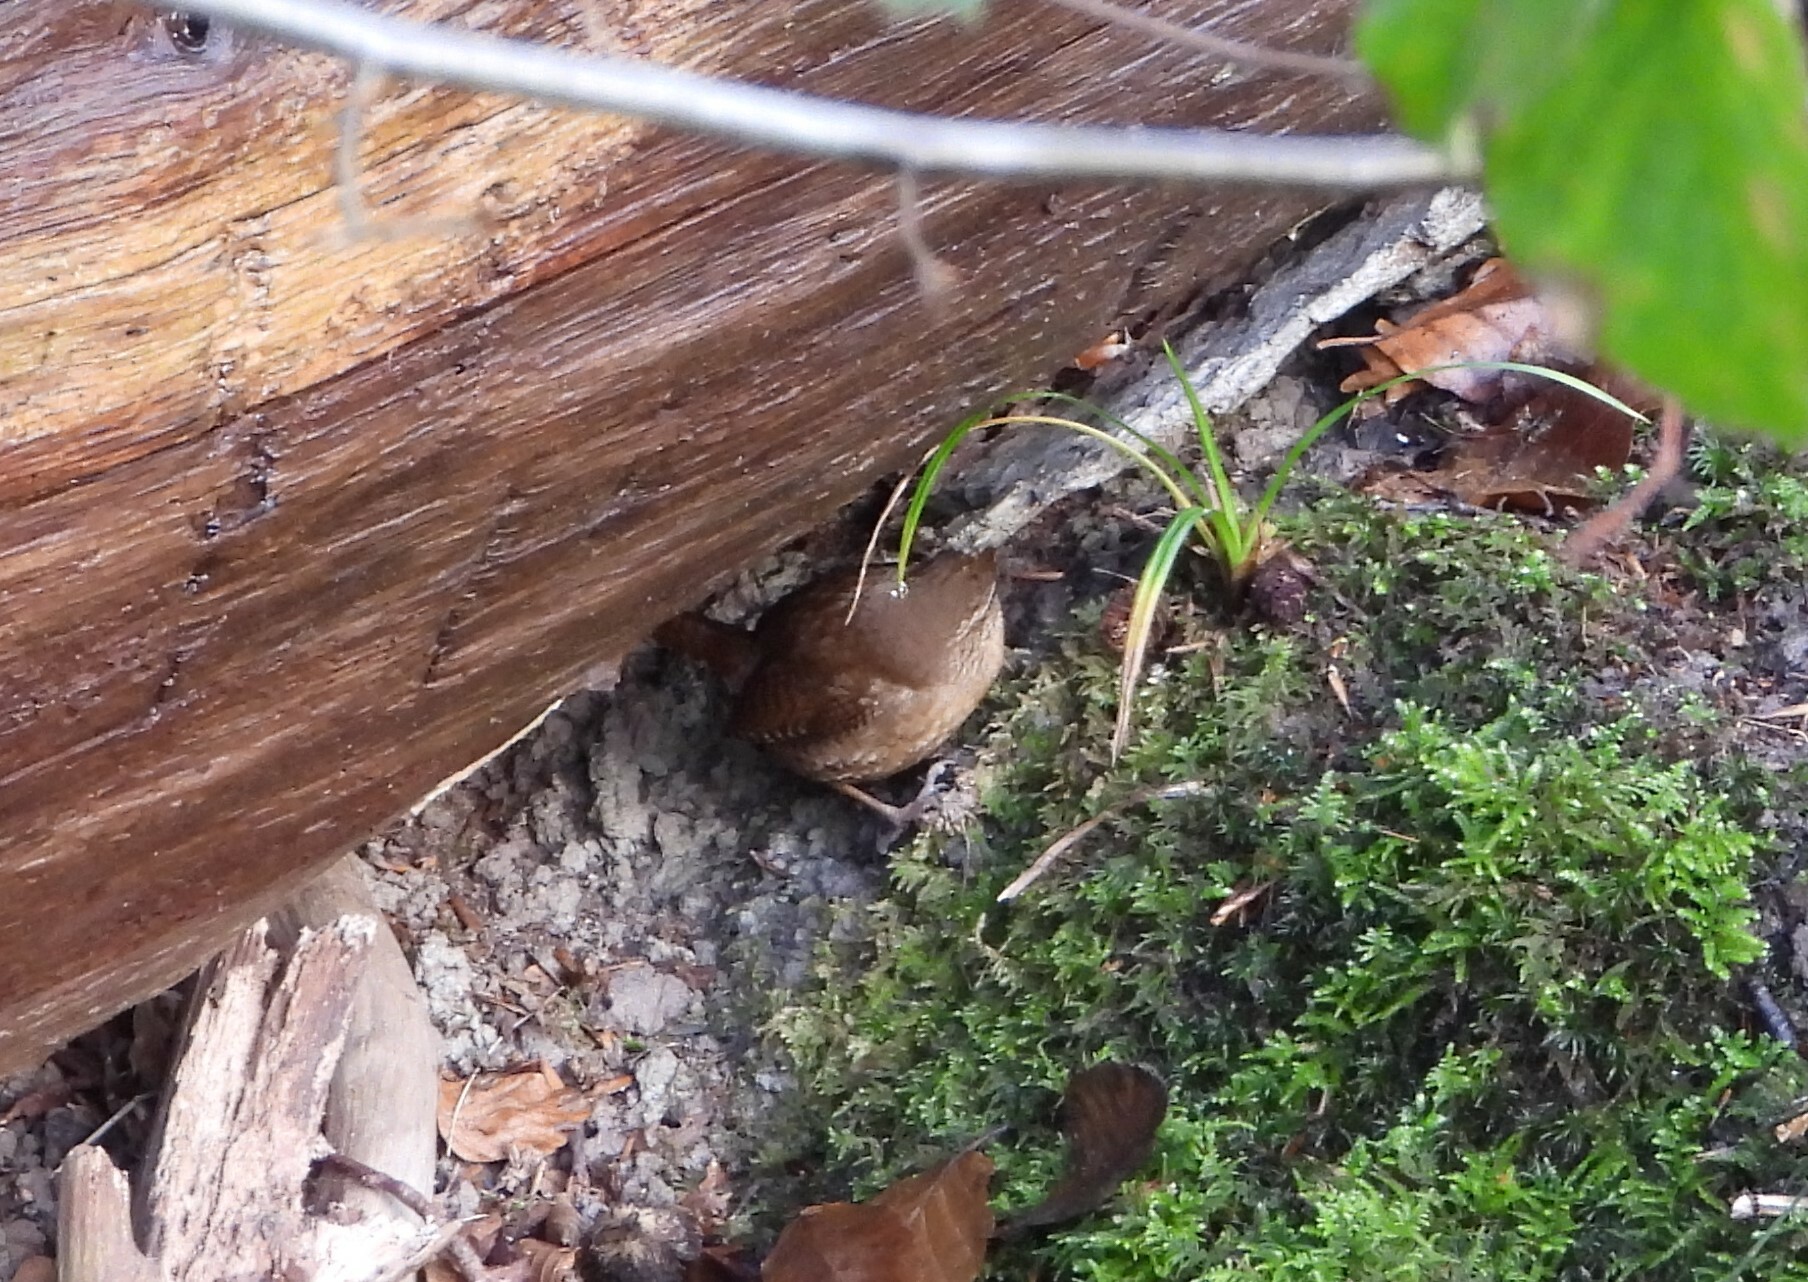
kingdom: Animalia
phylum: Chordata
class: Aves
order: Passeriformes
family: Troglodytidae
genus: Troglodytes
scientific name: Troglodytes troglodytes
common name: Eurasian wren
